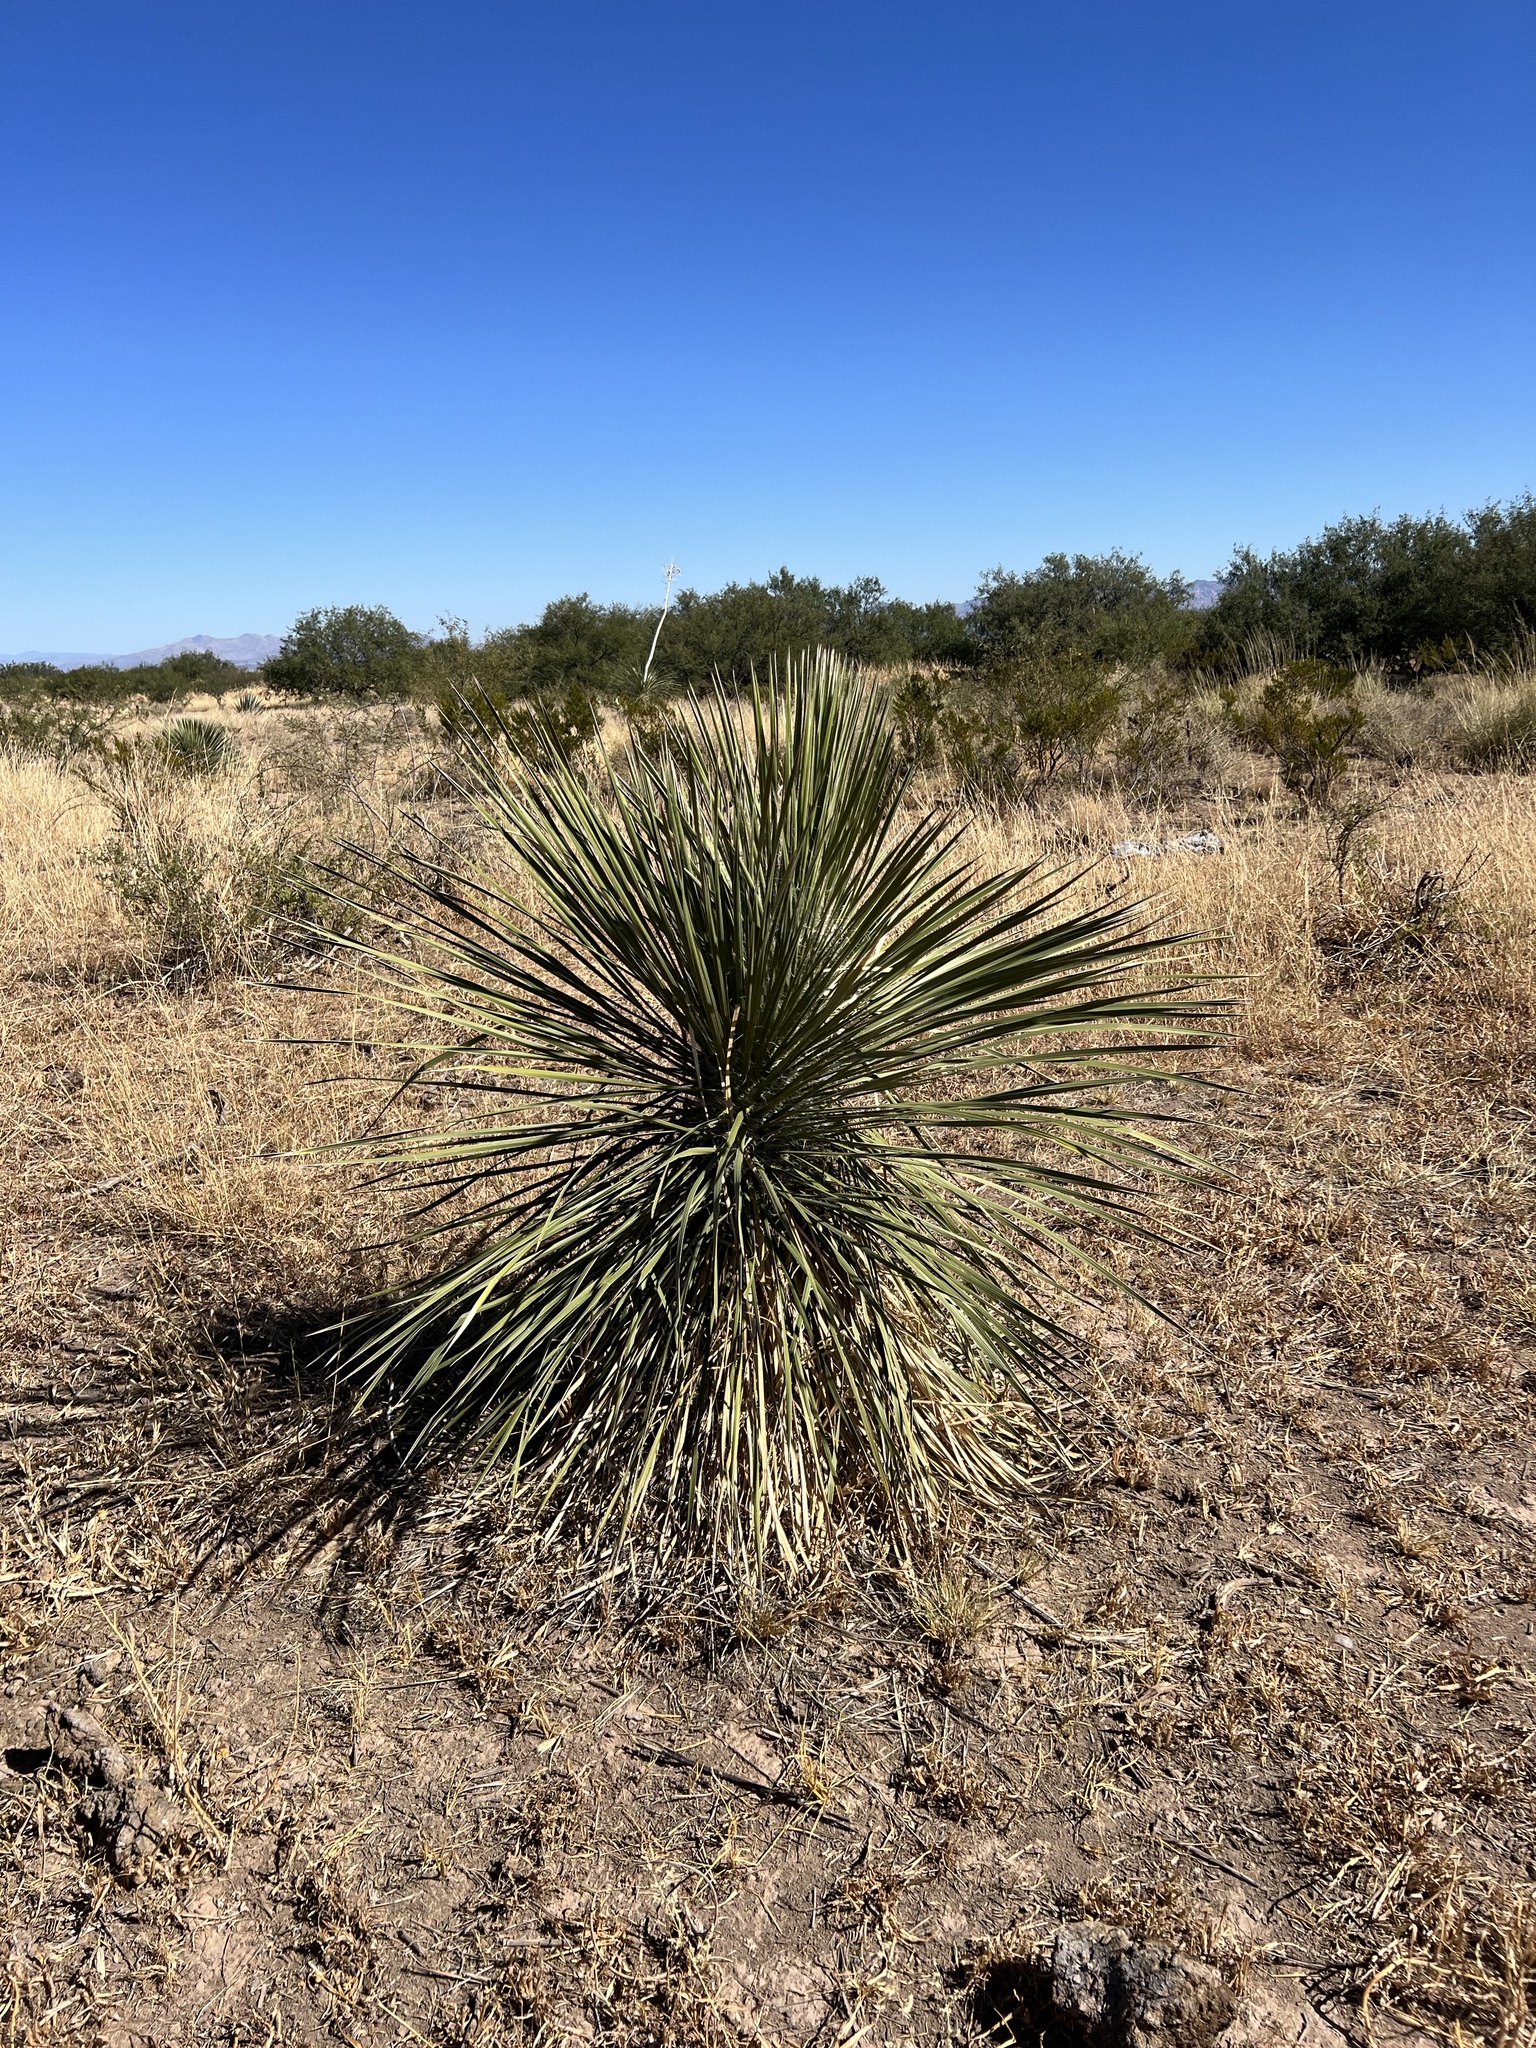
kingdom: Plantae
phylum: Tracheophyta
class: Liliopsida
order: Asparagales
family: Asparagaceae
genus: Yucca
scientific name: Yucca elata
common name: Palmella
